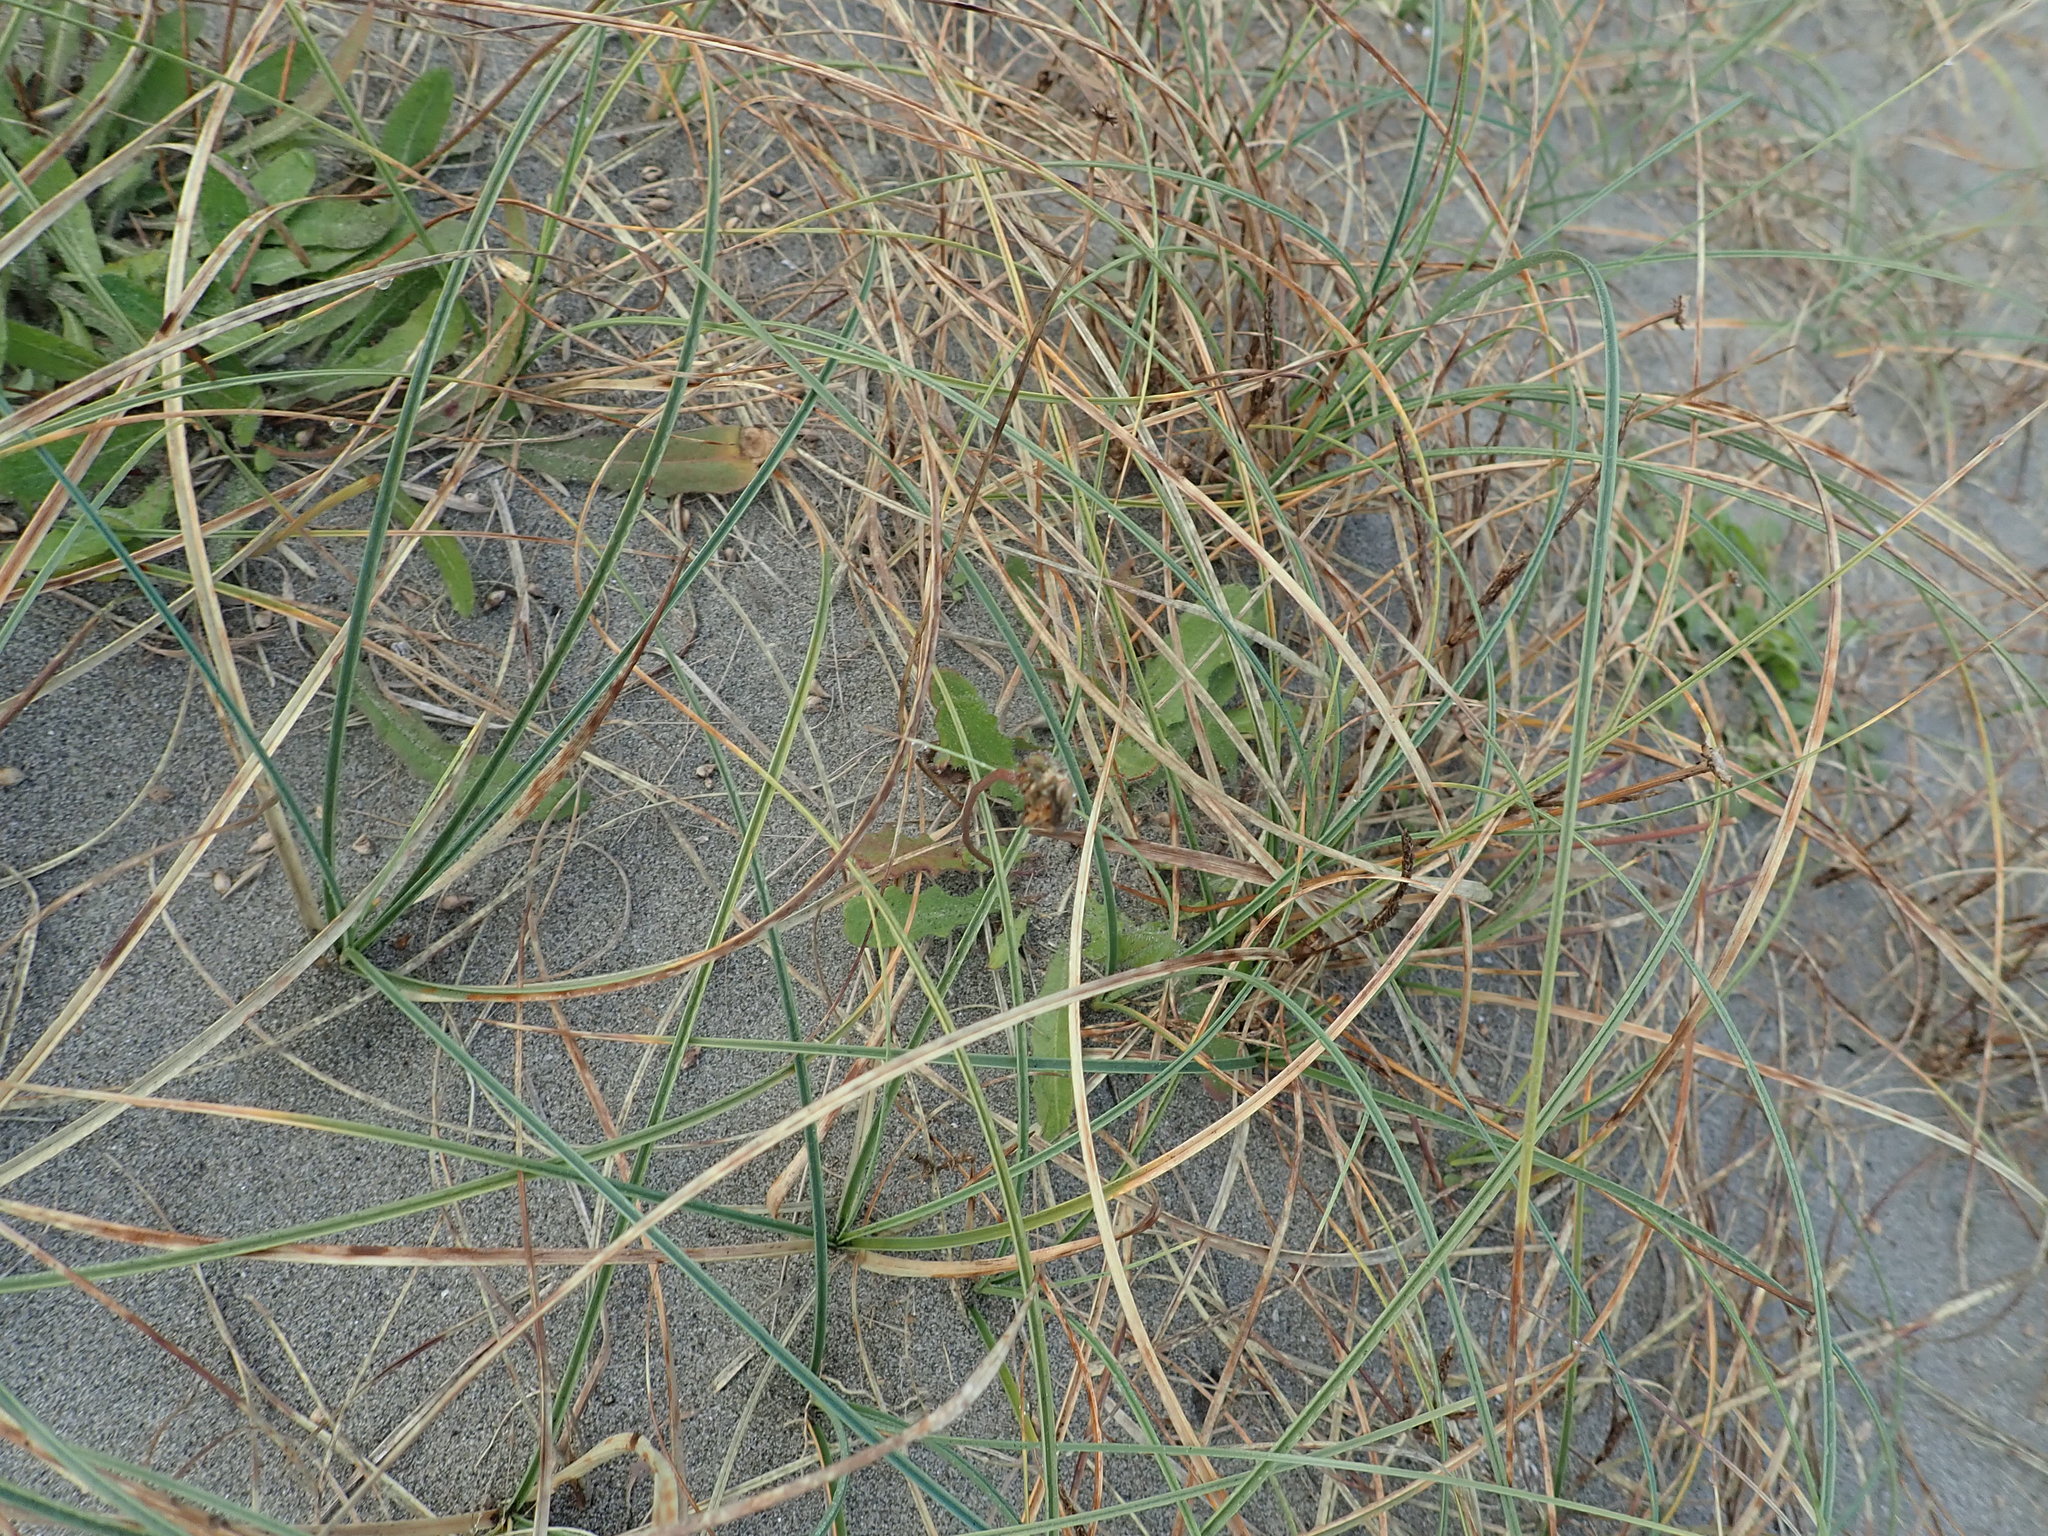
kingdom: Plantae
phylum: Tracheophyta
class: Liliopsida
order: Poales
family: Cyperaceae
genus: Carex
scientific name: Carex pumila
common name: Dwarf sedge
